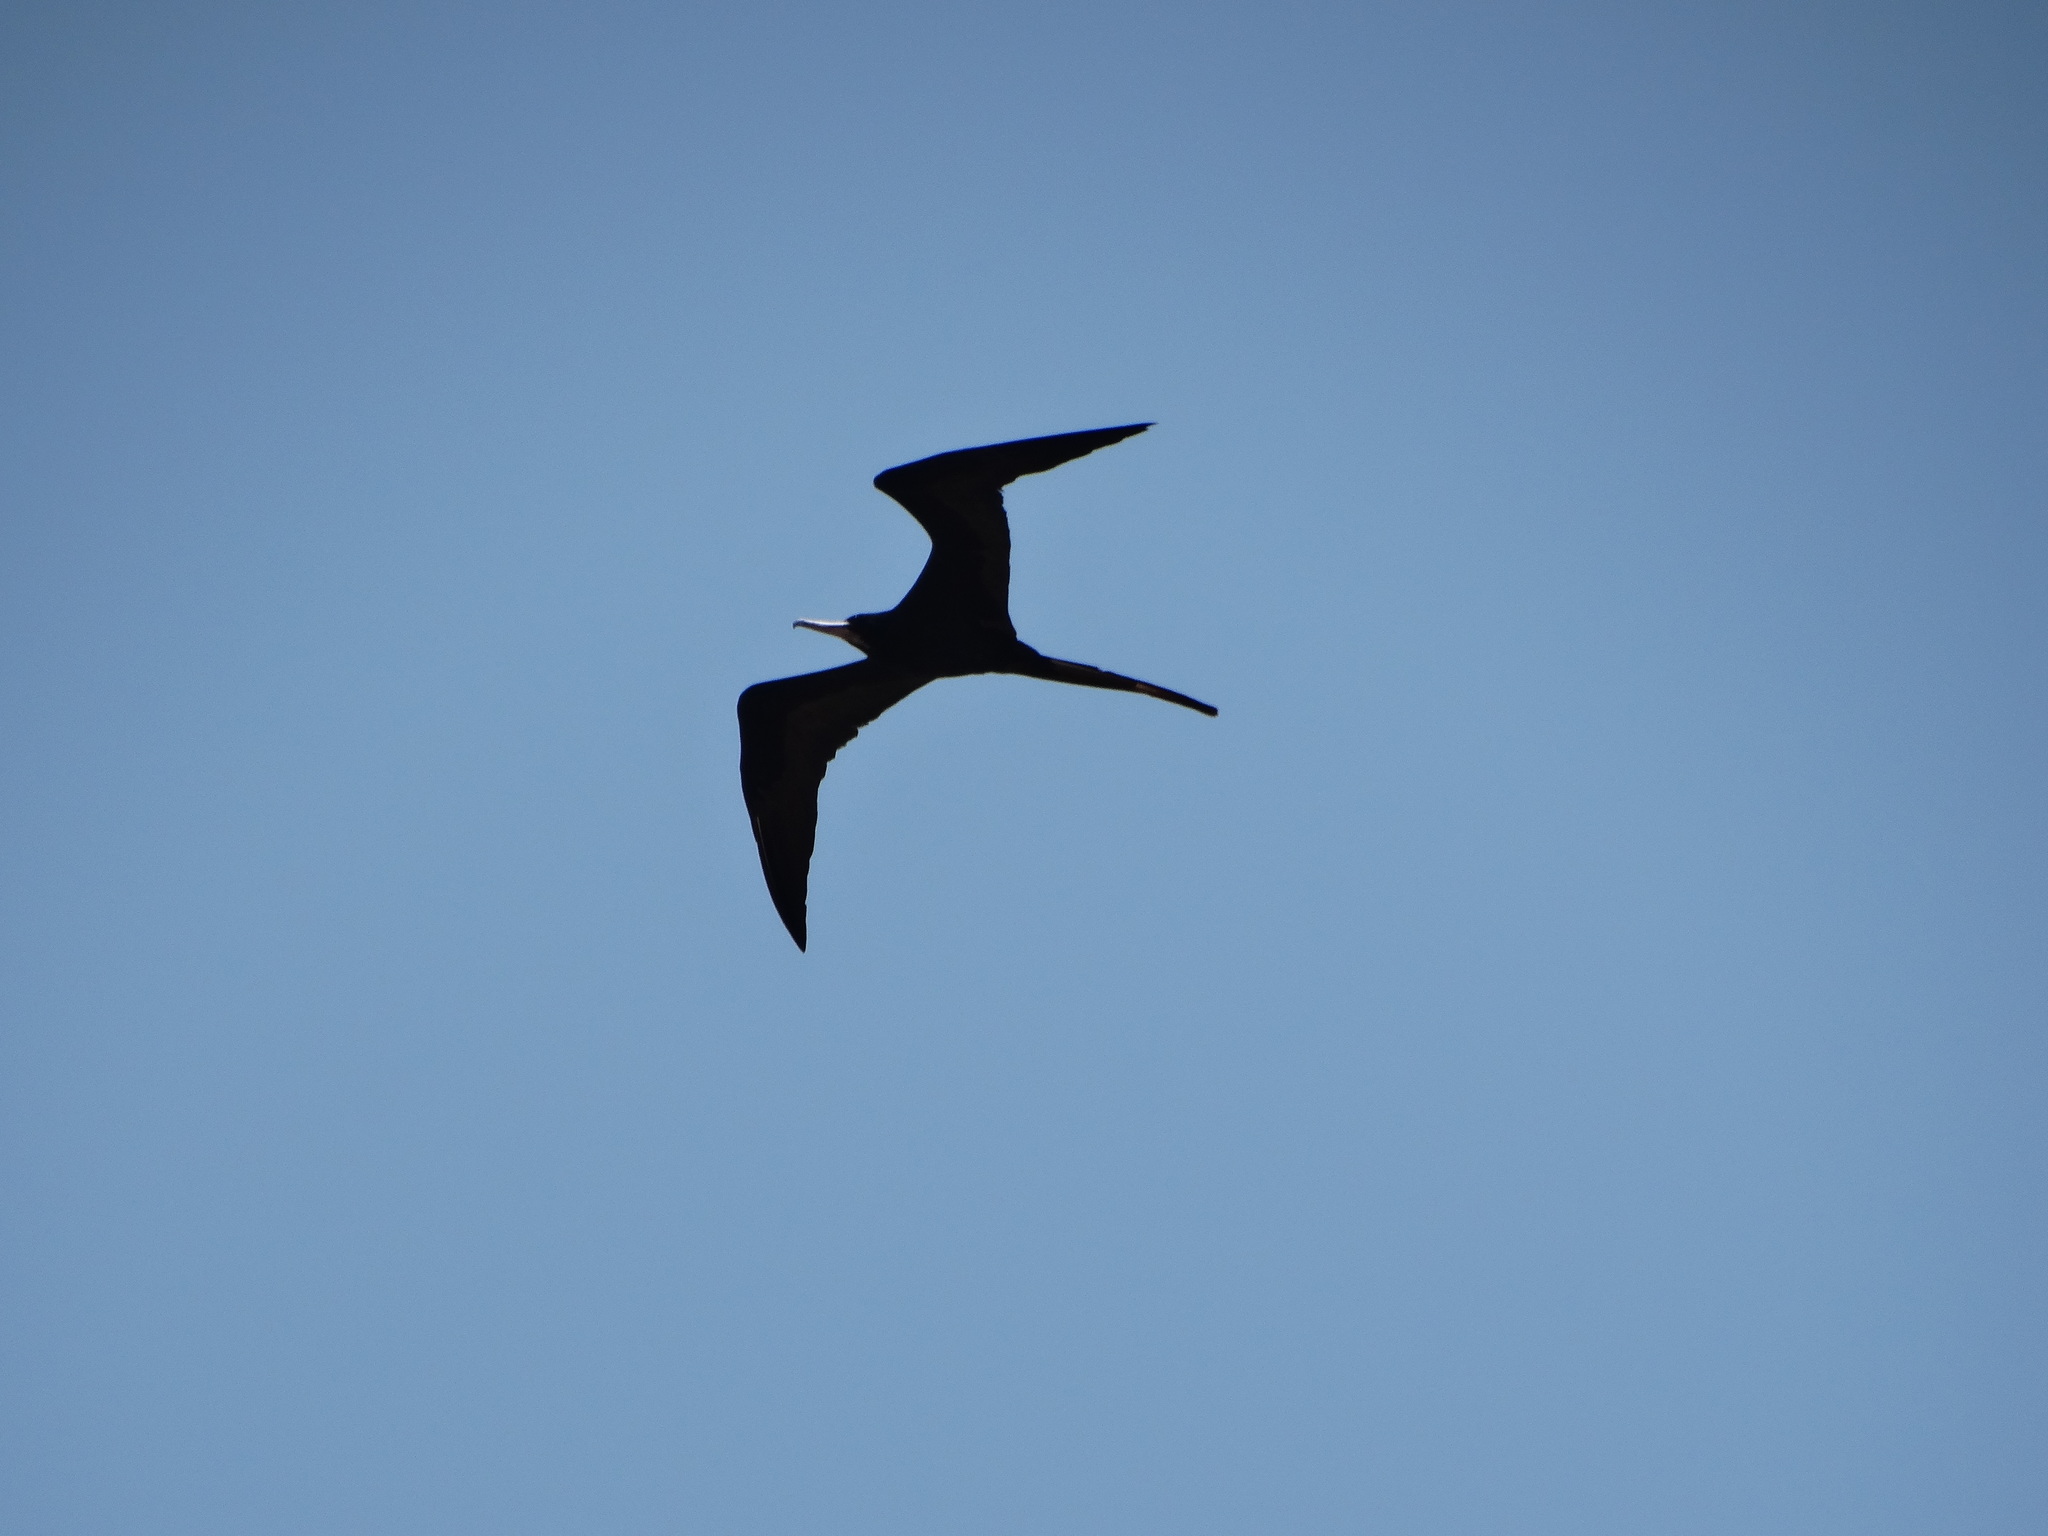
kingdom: Animalia
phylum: Chordata
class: Aves
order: Suliformes
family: Fregatidae
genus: Fregata
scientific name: Fregata magnificens
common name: Magnificent frigatebird
